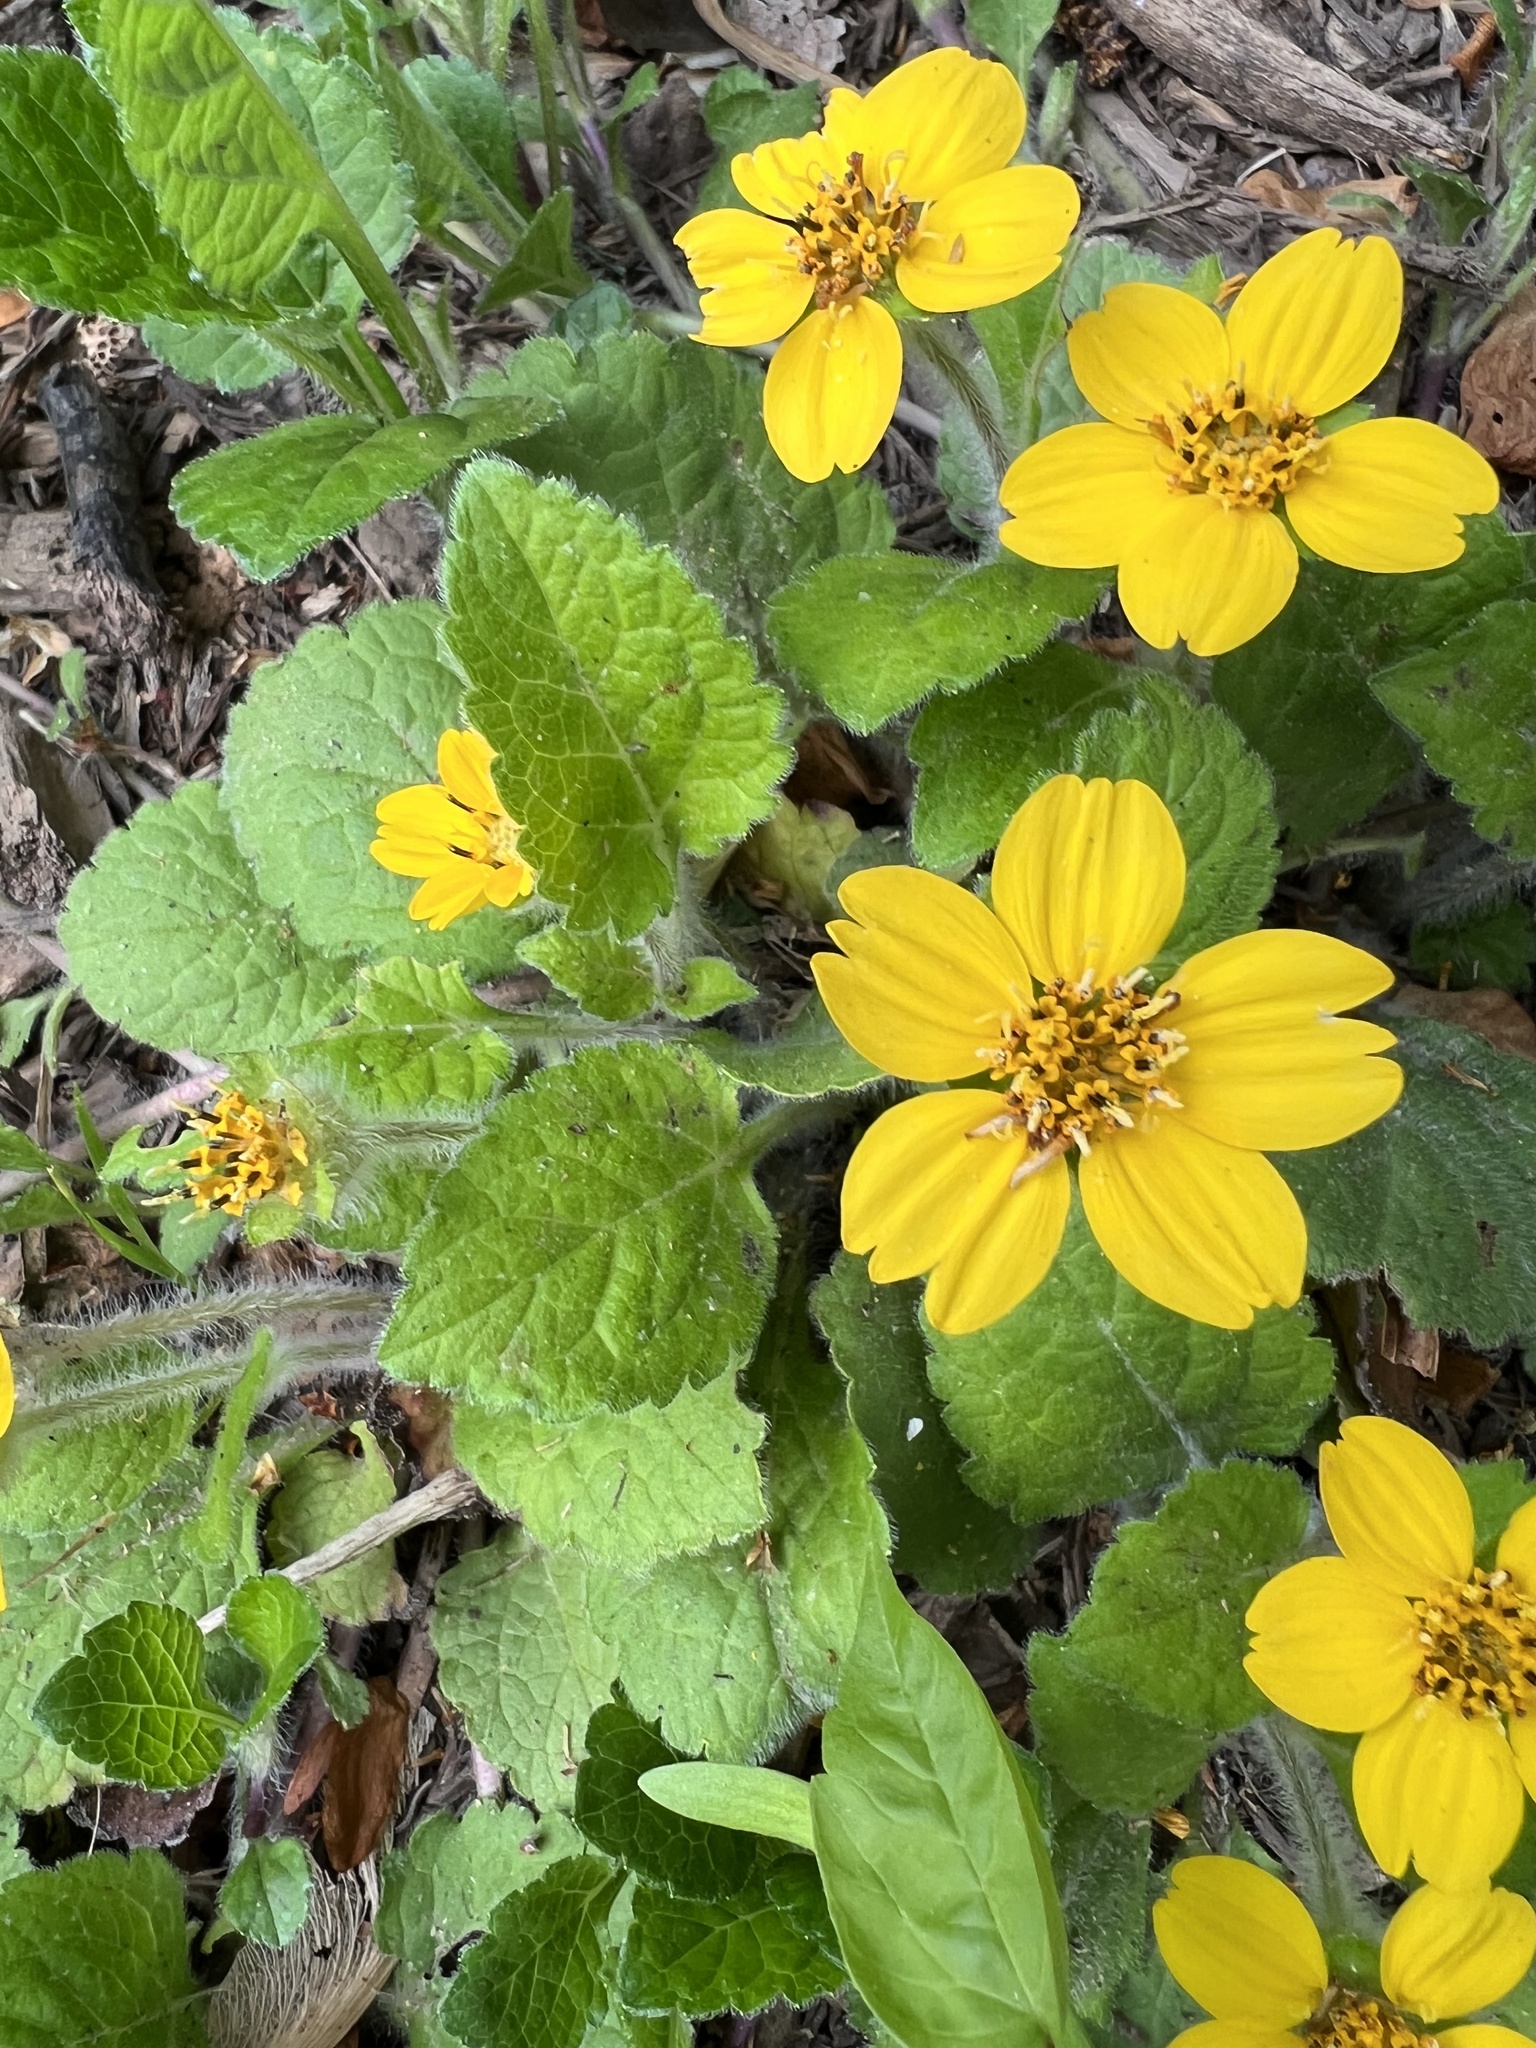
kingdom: Plantae
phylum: Tracheophyta
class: Magnoliopsida
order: Asterales
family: Asteraceae
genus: Chrysogonum
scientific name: Chrysogonum virginianum
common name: Golden-knee
